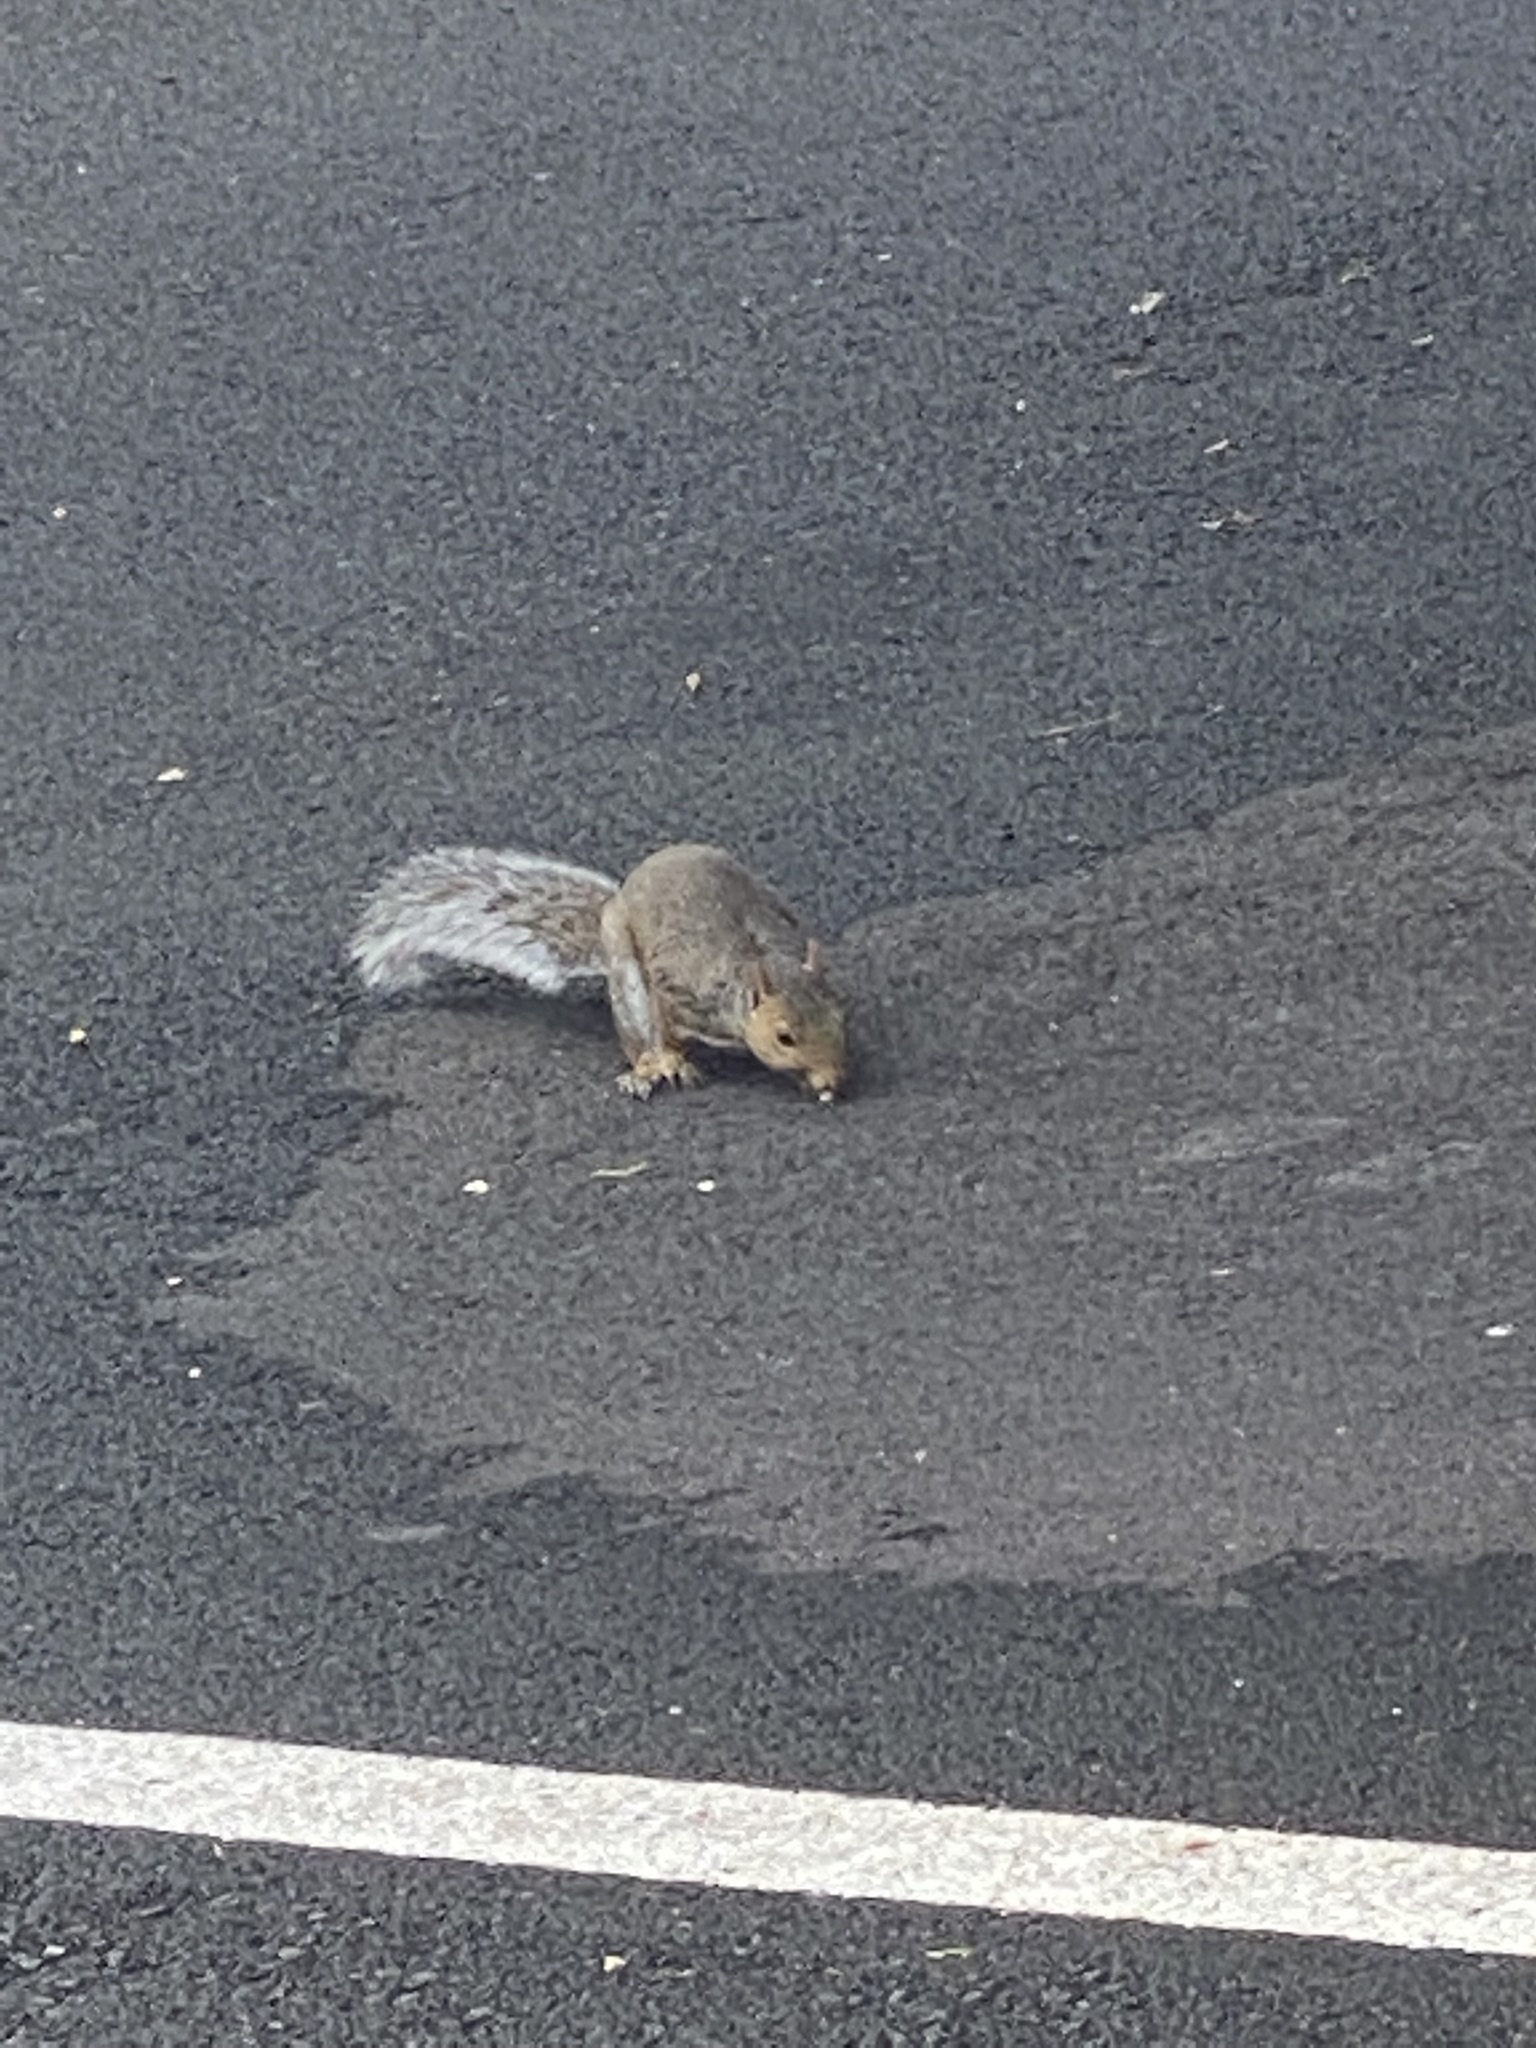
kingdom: Animalia
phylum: Chordata
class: Mammalia
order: Rodentia
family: Sciuridae
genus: Sciurus
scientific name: Sciurus carolinensis
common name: Eastern gray squirrel
